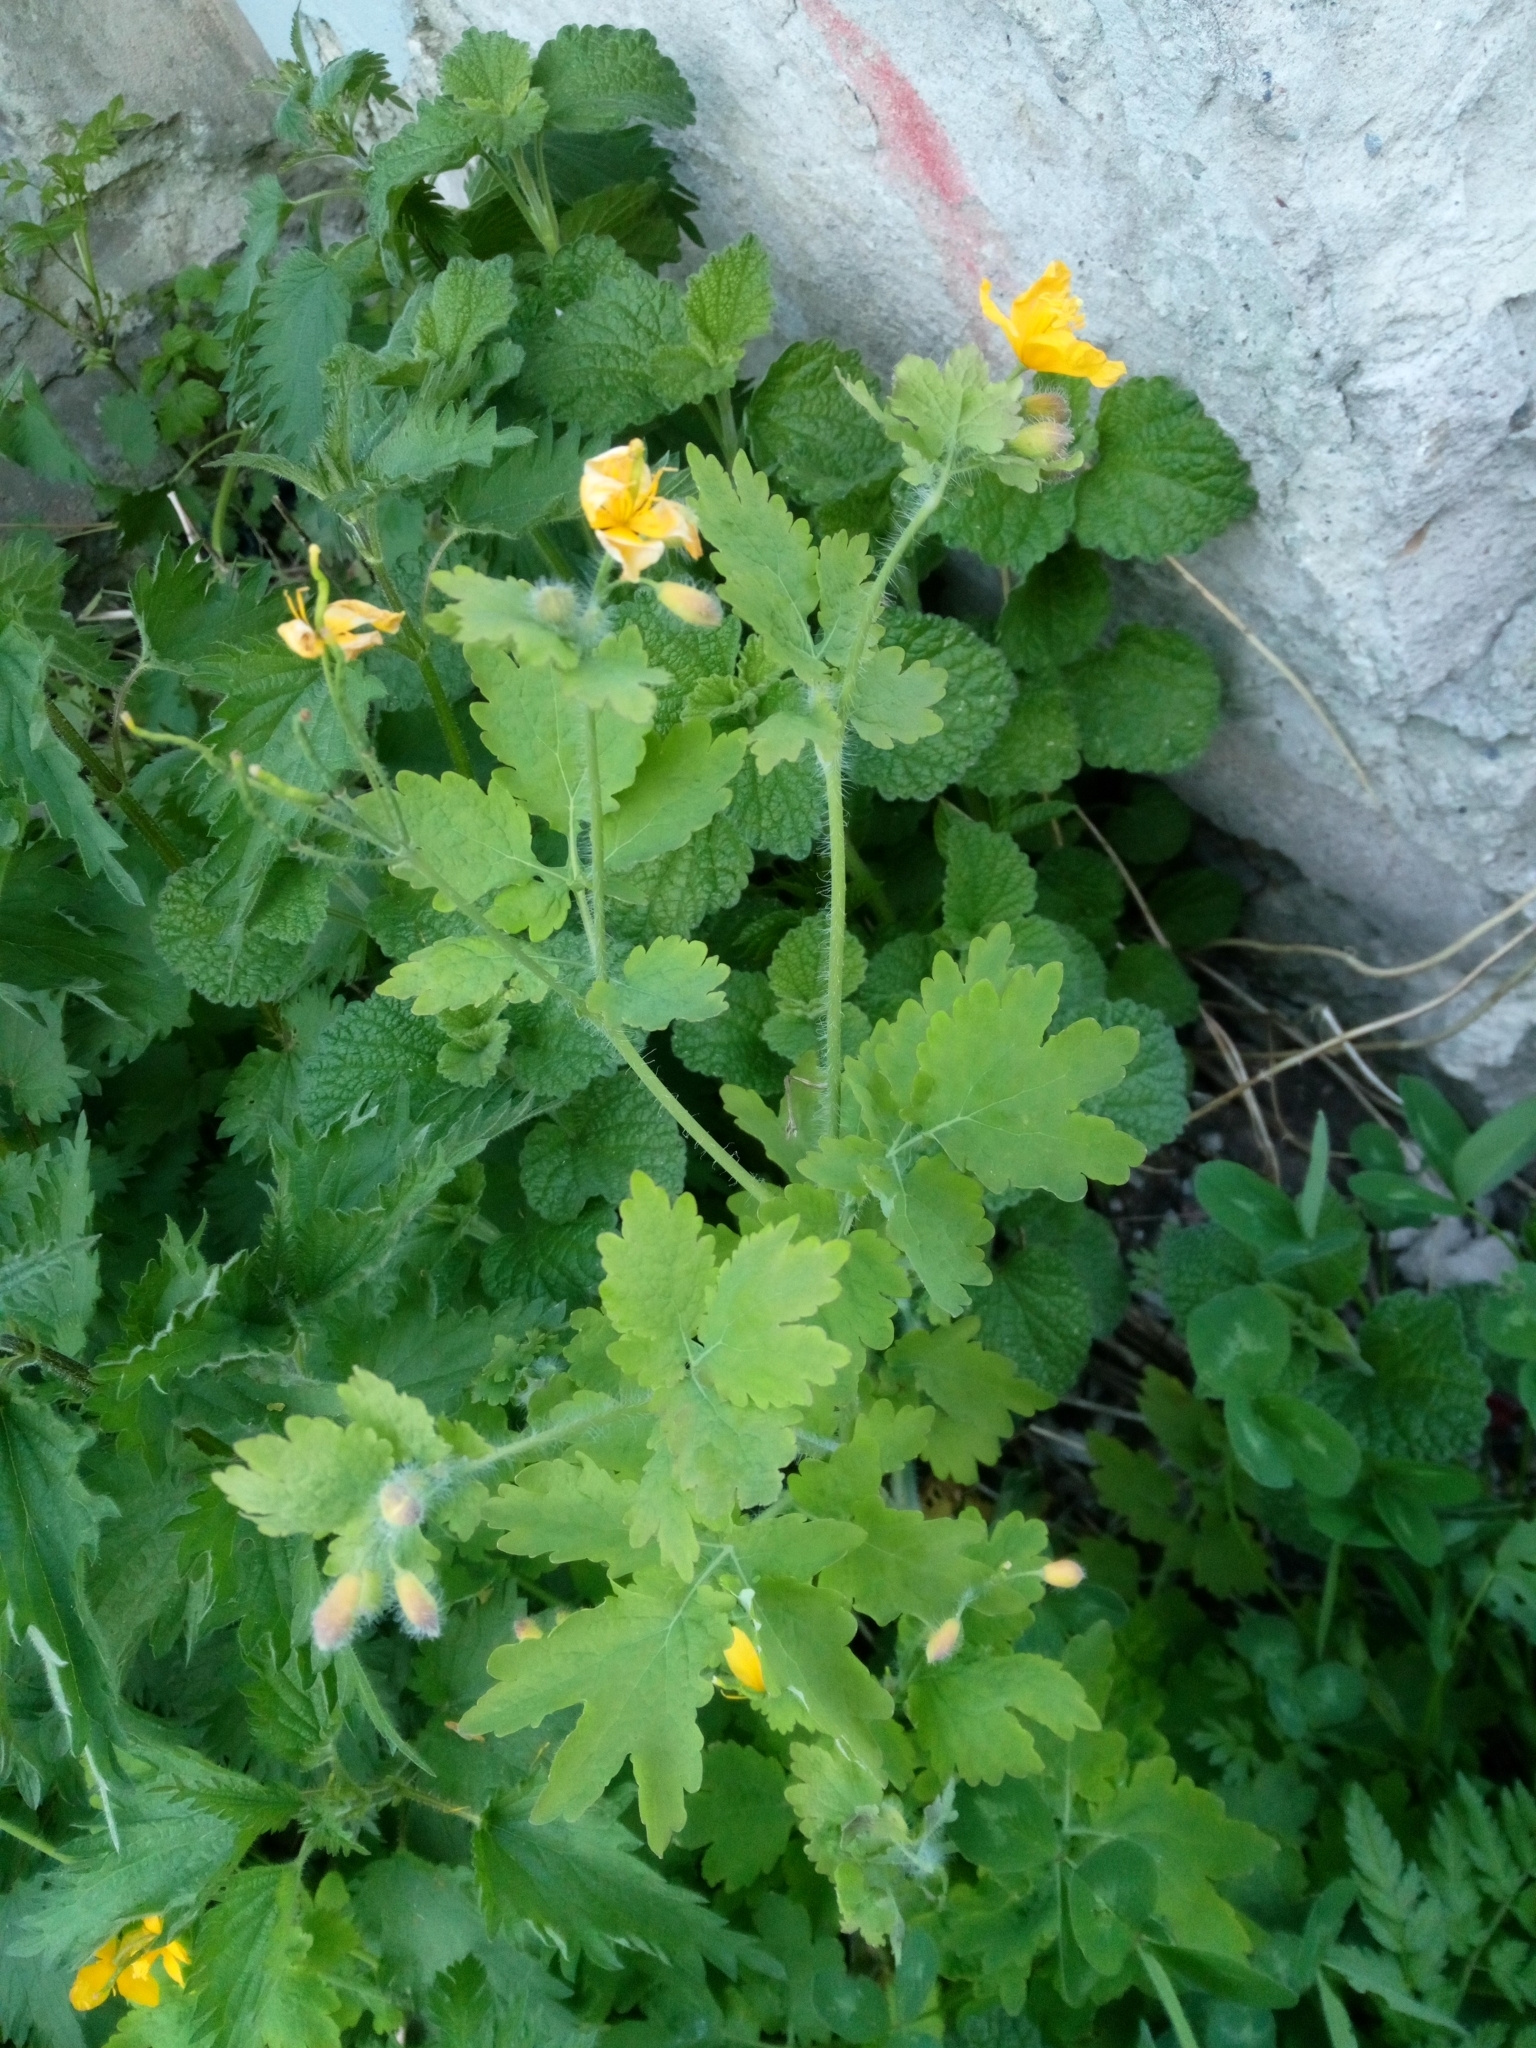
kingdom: Plantae
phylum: Tracheophyta
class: Magnoliopsida
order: Ranunculales
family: Papaveraceae
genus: Chelidonium
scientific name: Chelidonium majus
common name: Greater celandine
